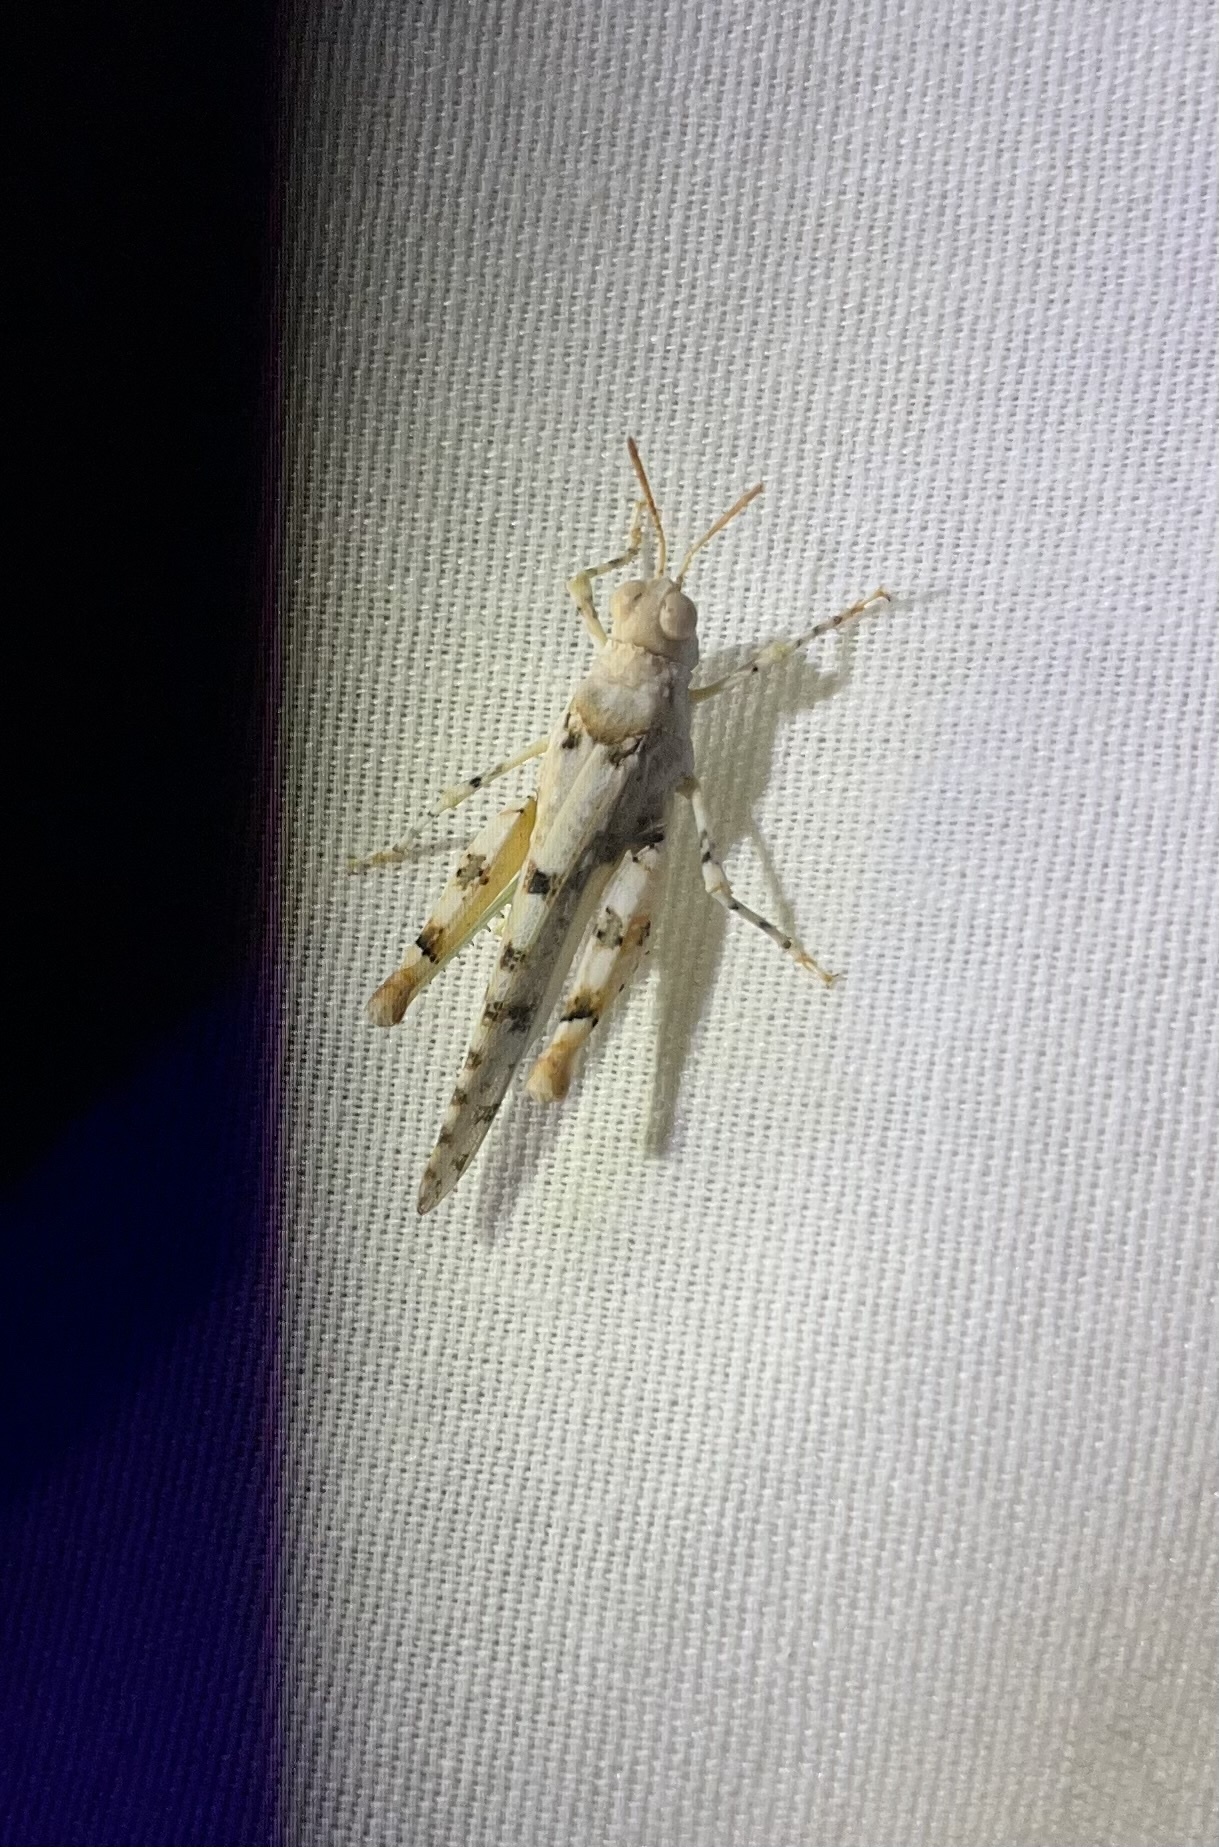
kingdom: Animalia
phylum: Arthropoda
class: Insecta
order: Orthoptera
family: Acrididae
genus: Cibolacris
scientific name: Cibolacris parviceps
